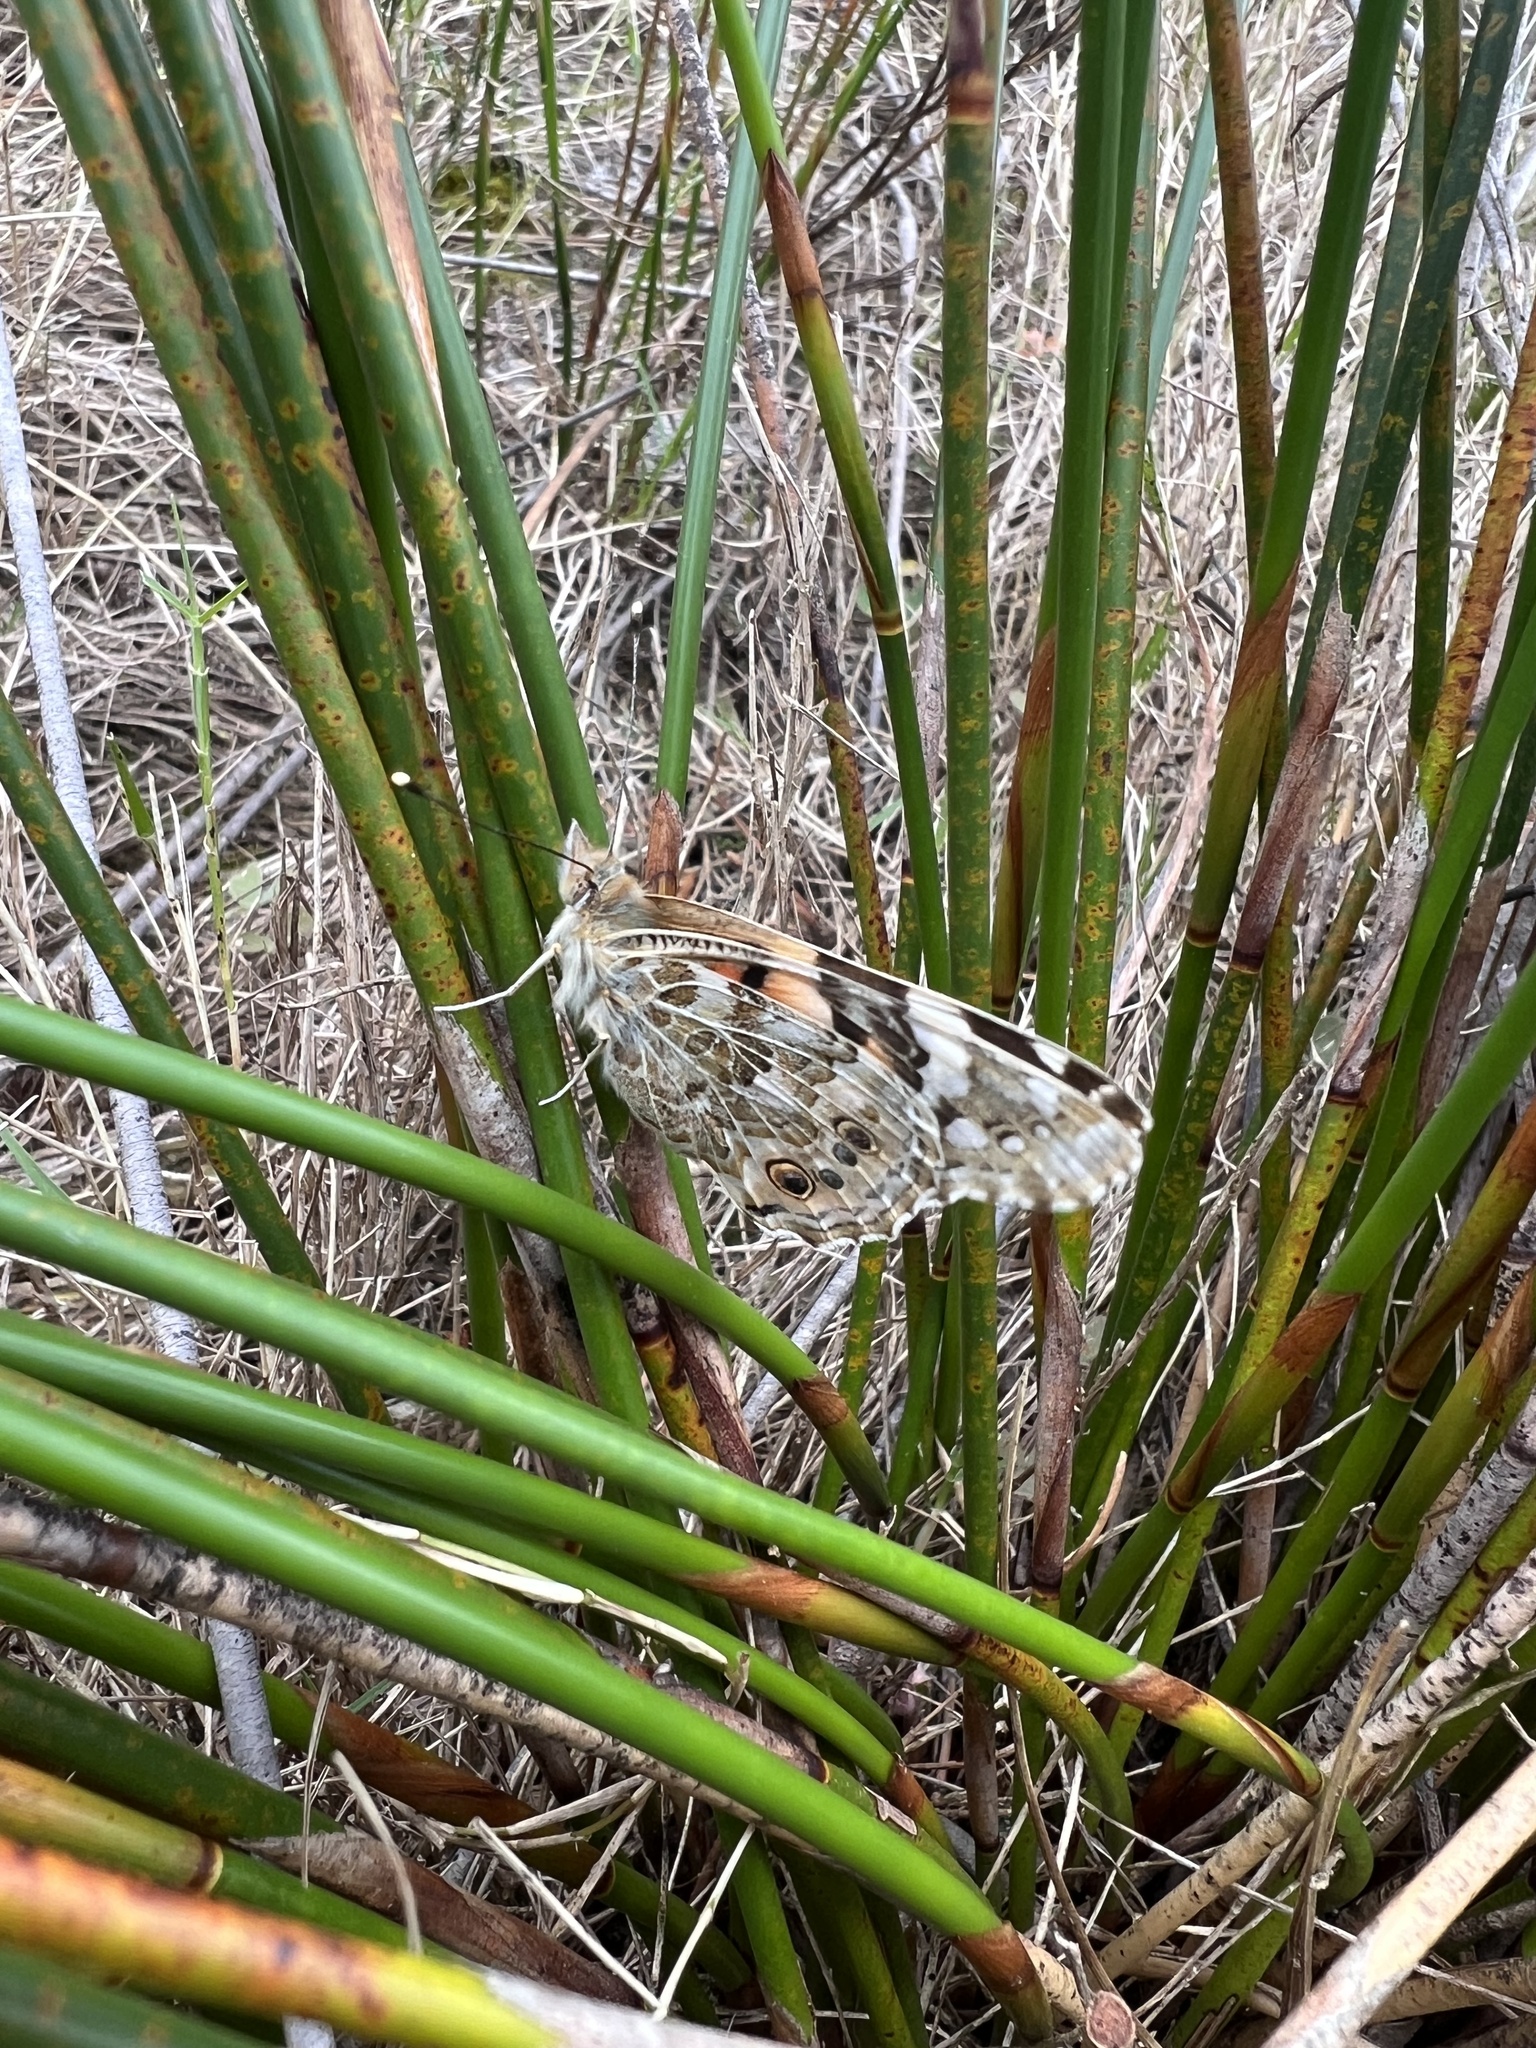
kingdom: Animalia
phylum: Arthropoda
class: Insecta
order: Lepidoptera
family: Nymphalidae
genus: Vanessa
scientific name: Vanessa cardui
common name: Painted lady
